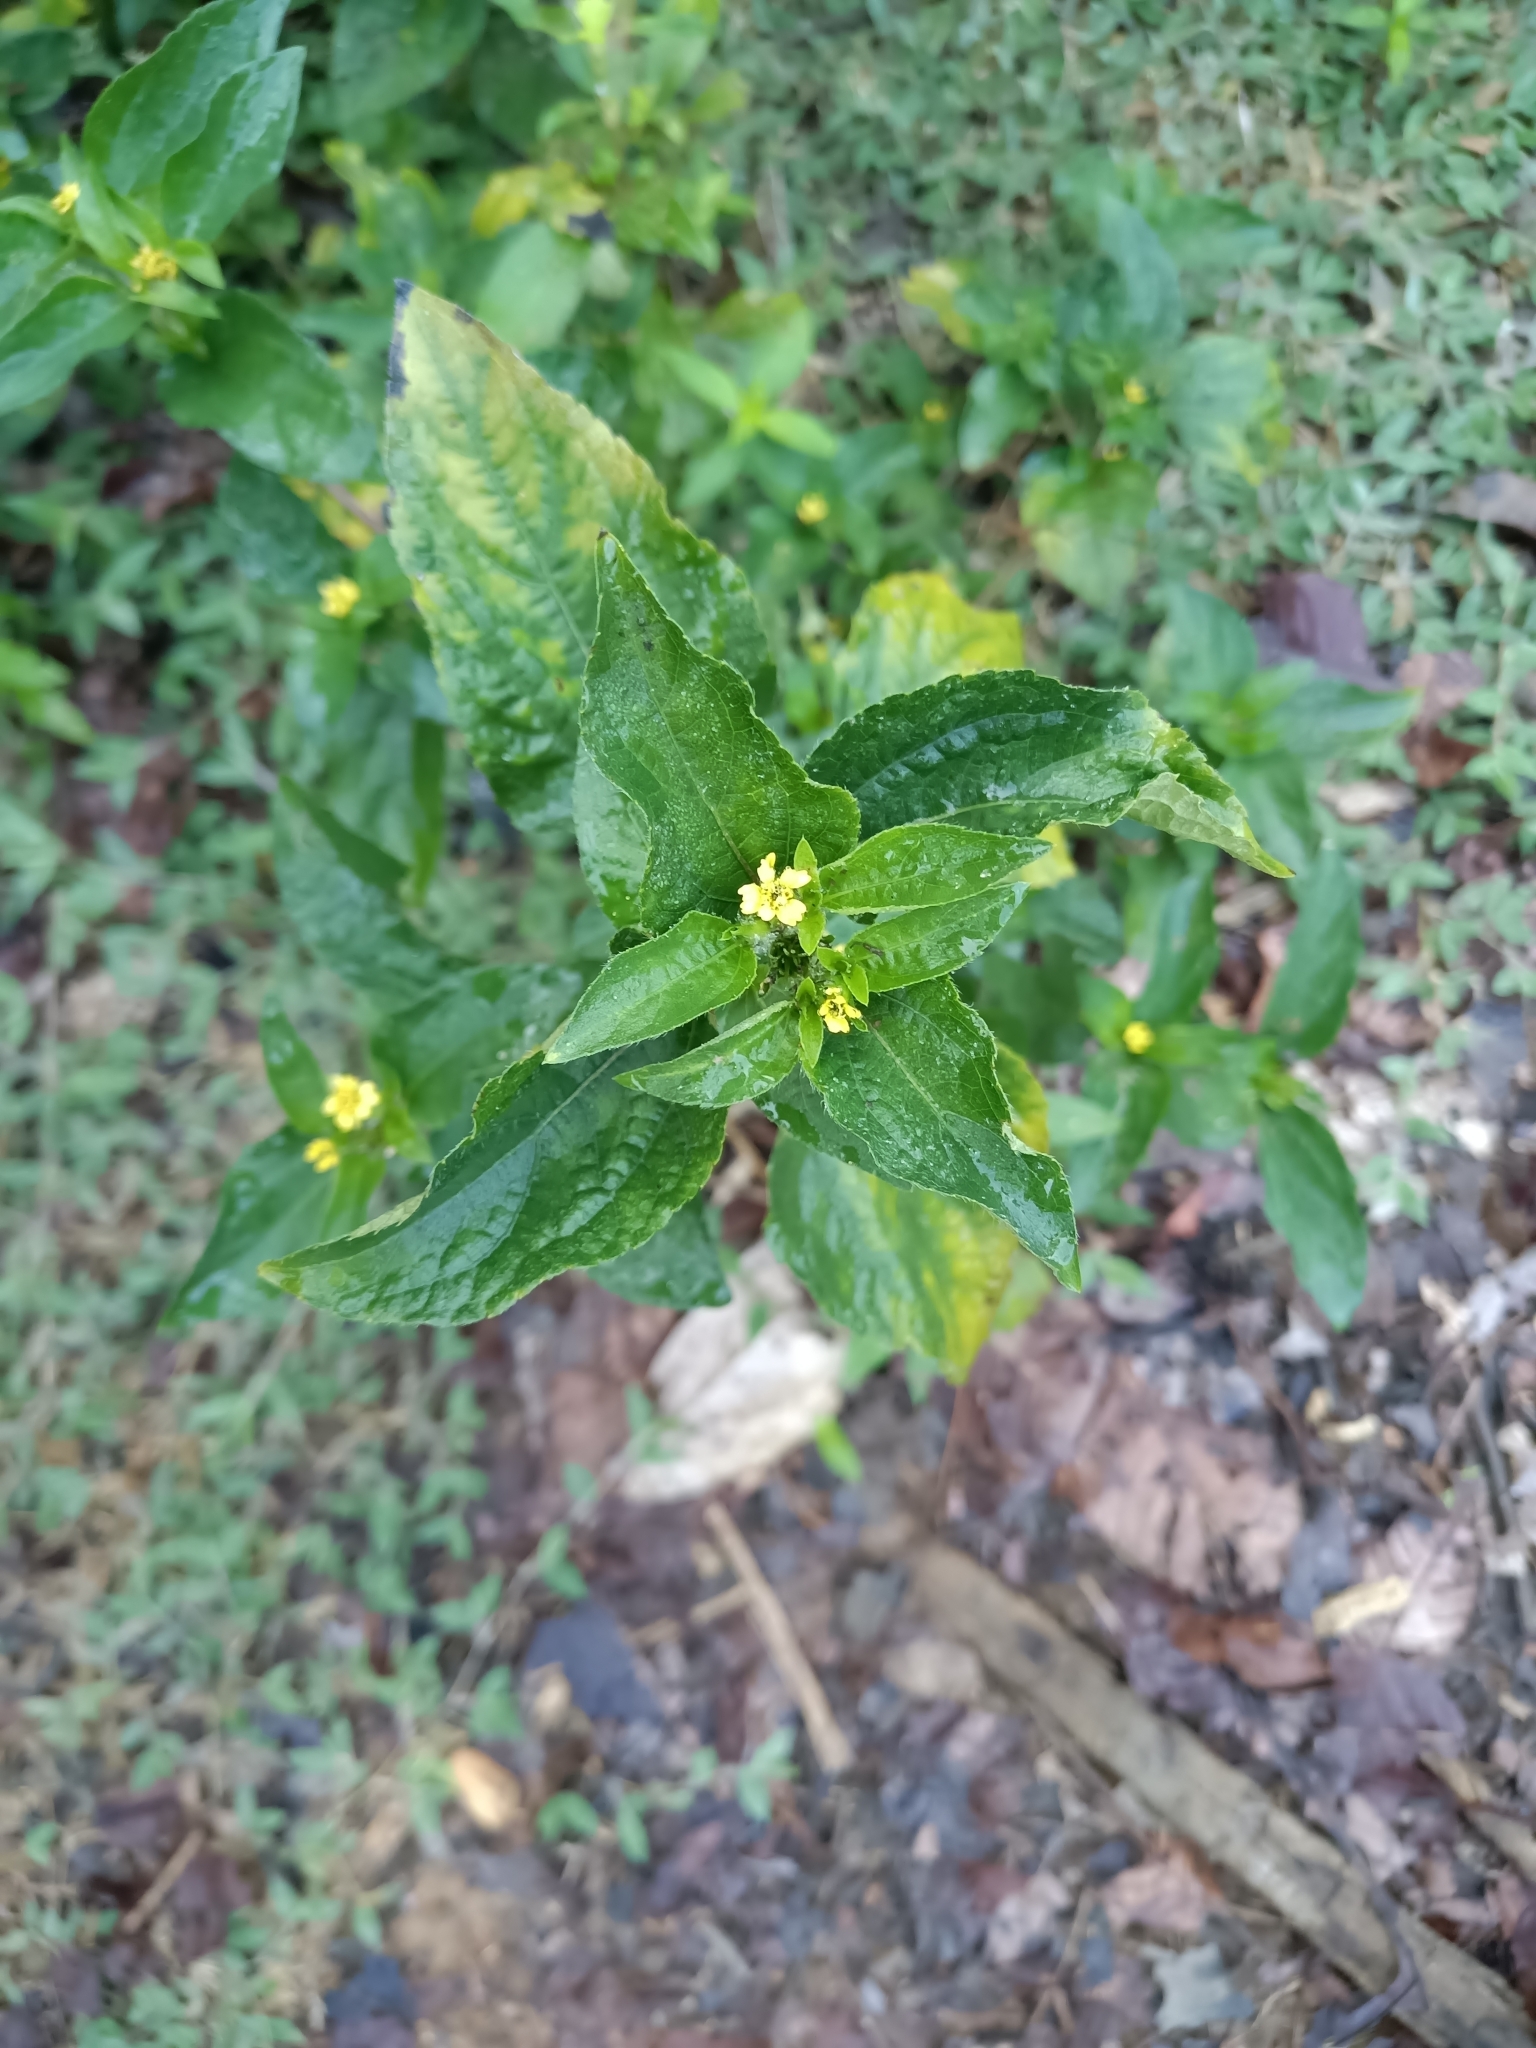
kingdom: Plantae
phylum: Tracheophyta
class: Magnoliopsida
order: Asterales
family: Asteraceae
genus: Synedrella
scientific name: Synedrella nodiflora
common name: Nodeweed
